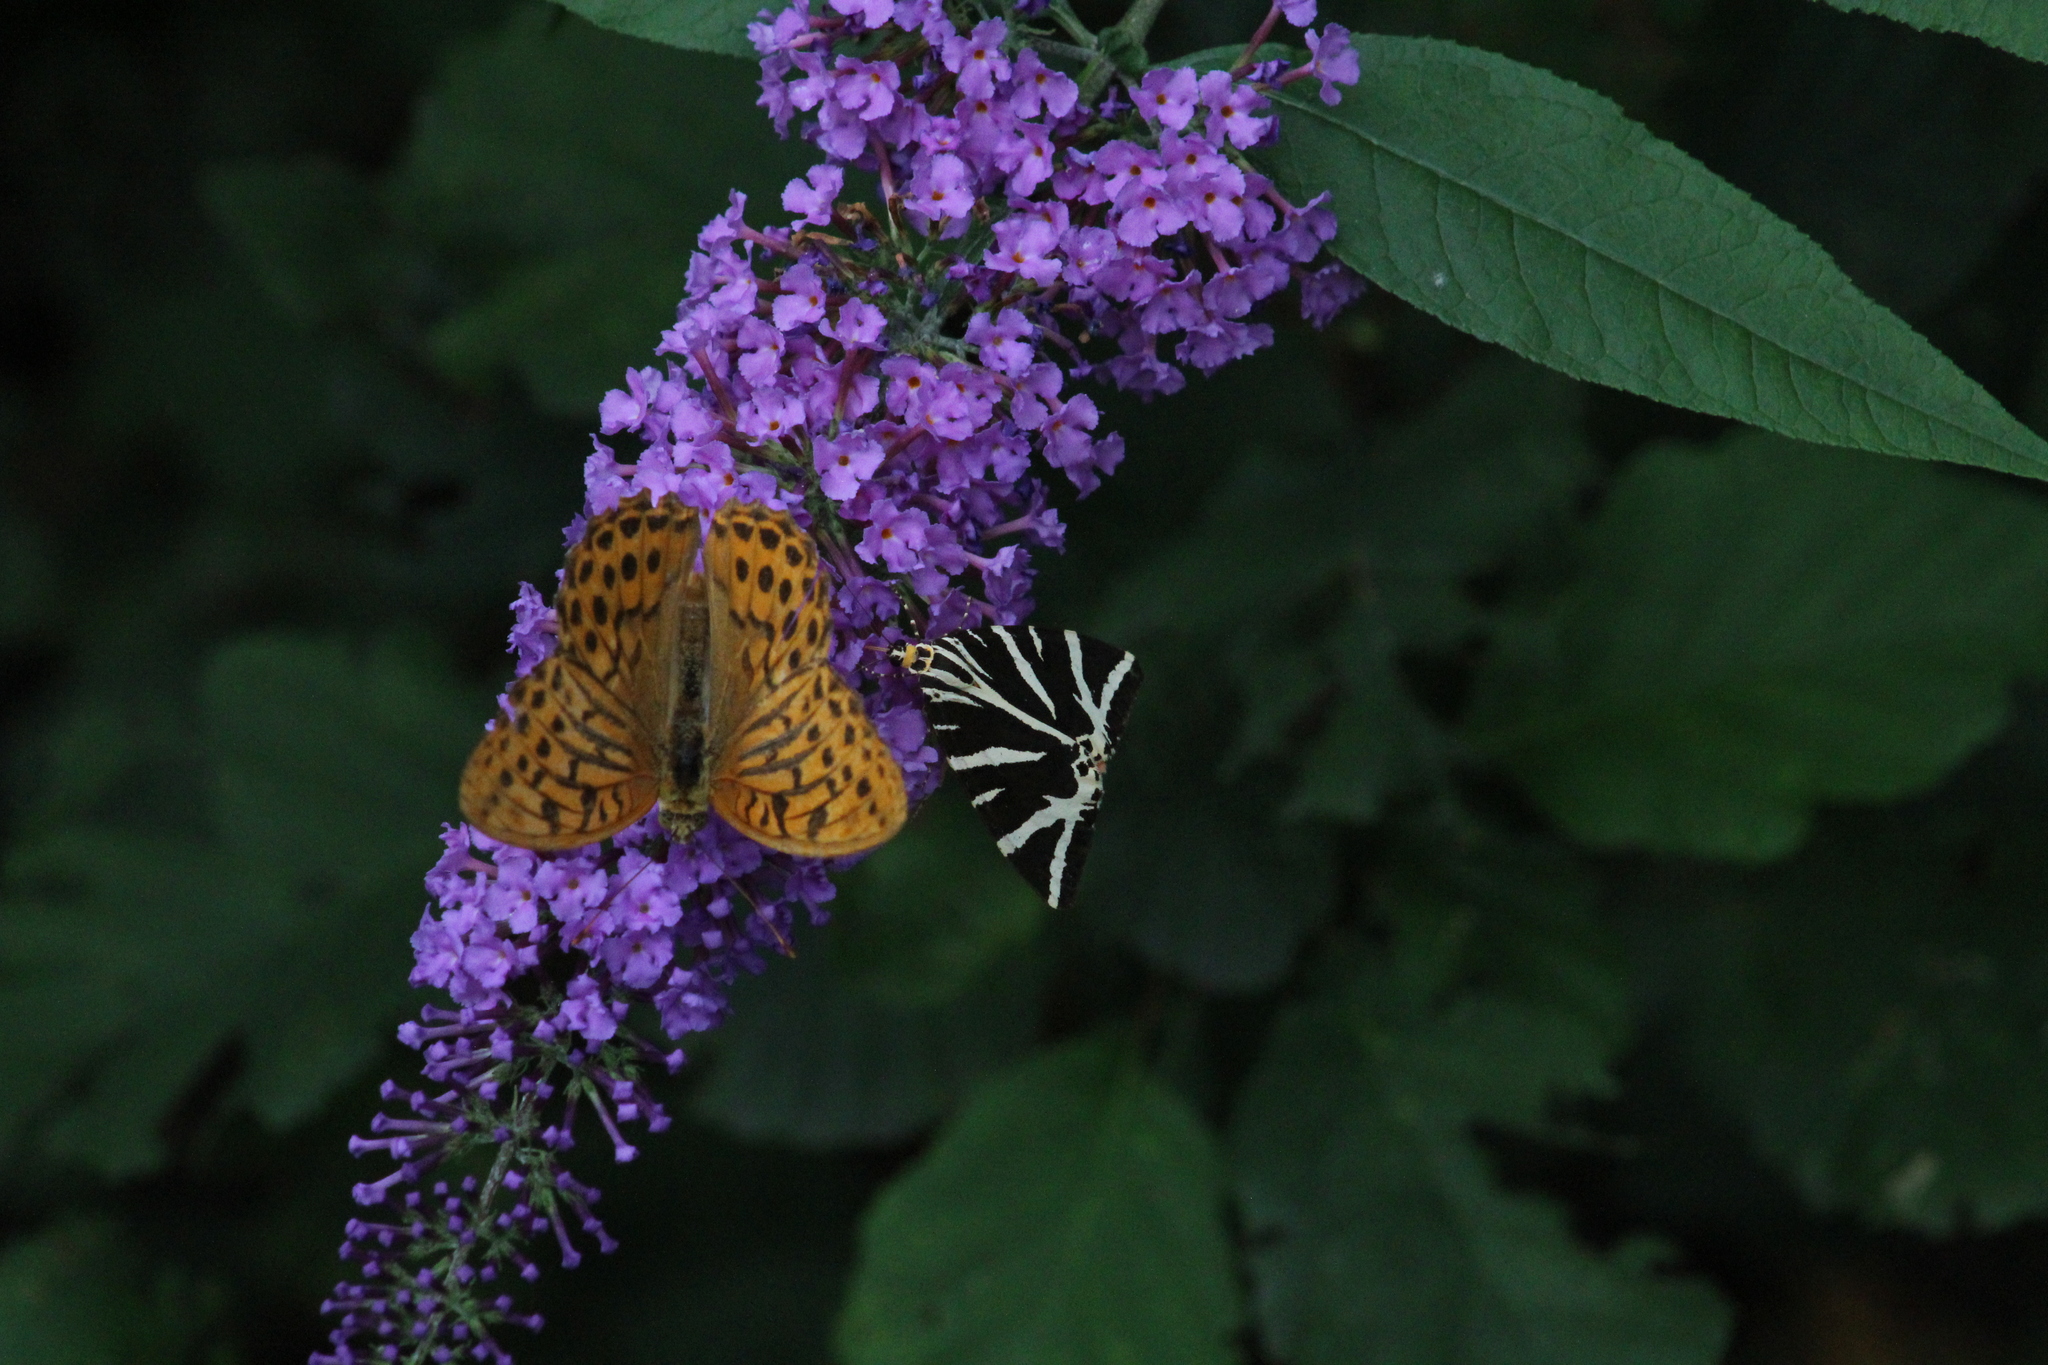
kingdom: Animalia
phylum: Arthropoda
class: Insecta
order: Lepidoptera
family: Nymphalidae
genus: Argynnis
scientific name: Argynnis paphia
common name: Silver-washed fritillary
